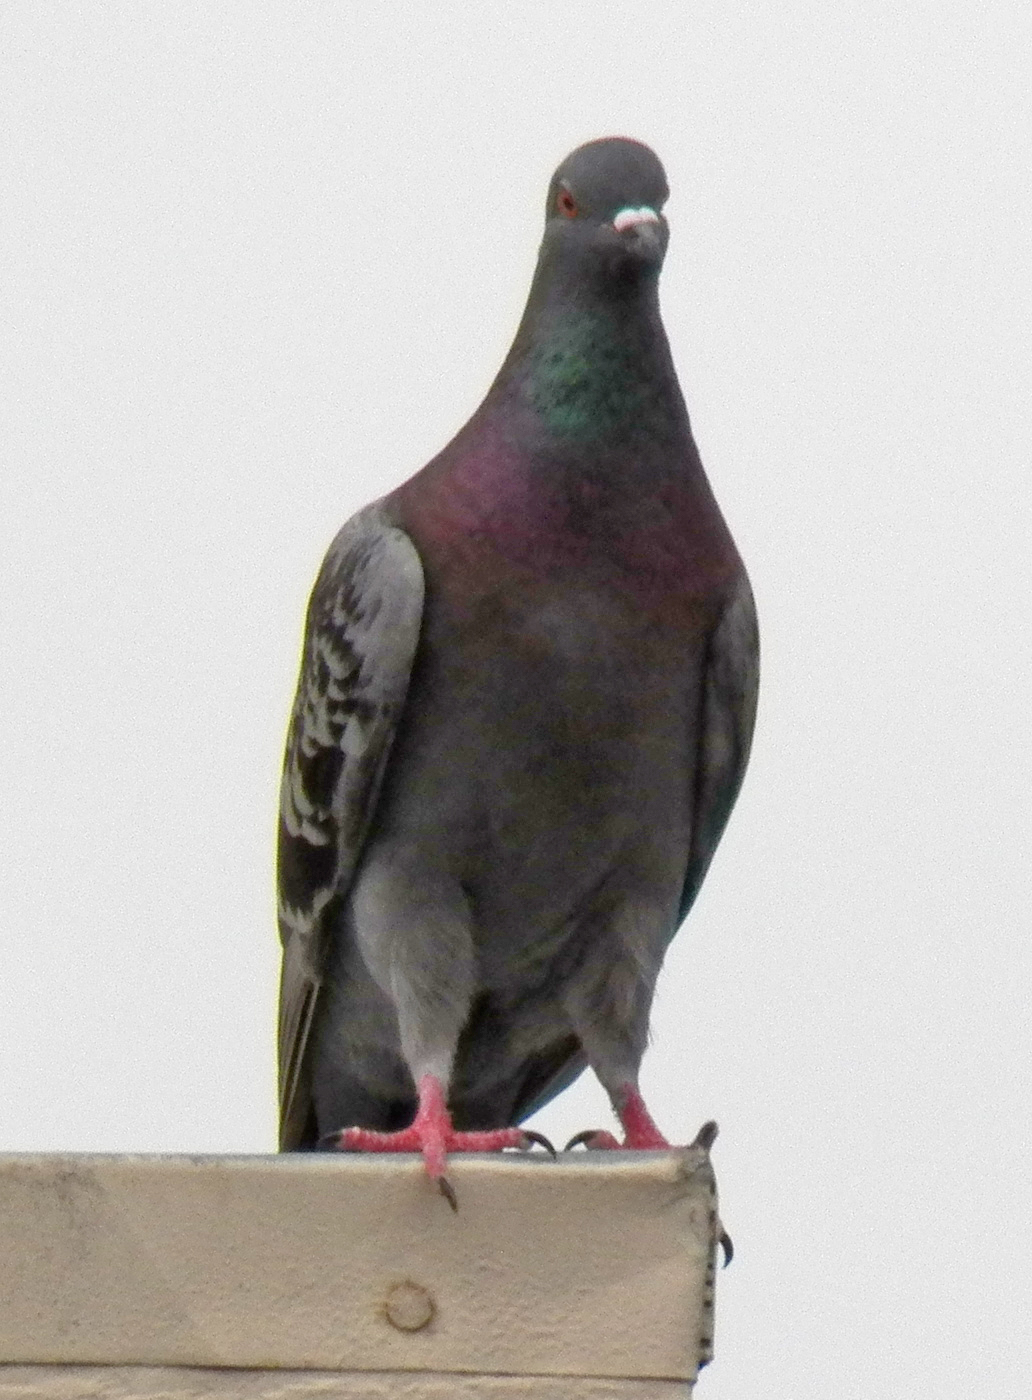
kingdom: Animalia
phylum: Chordata
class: Aves
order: Columbiformes
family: Columbidae
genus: Columba
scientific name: Columba livia
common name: Rock pigeon
